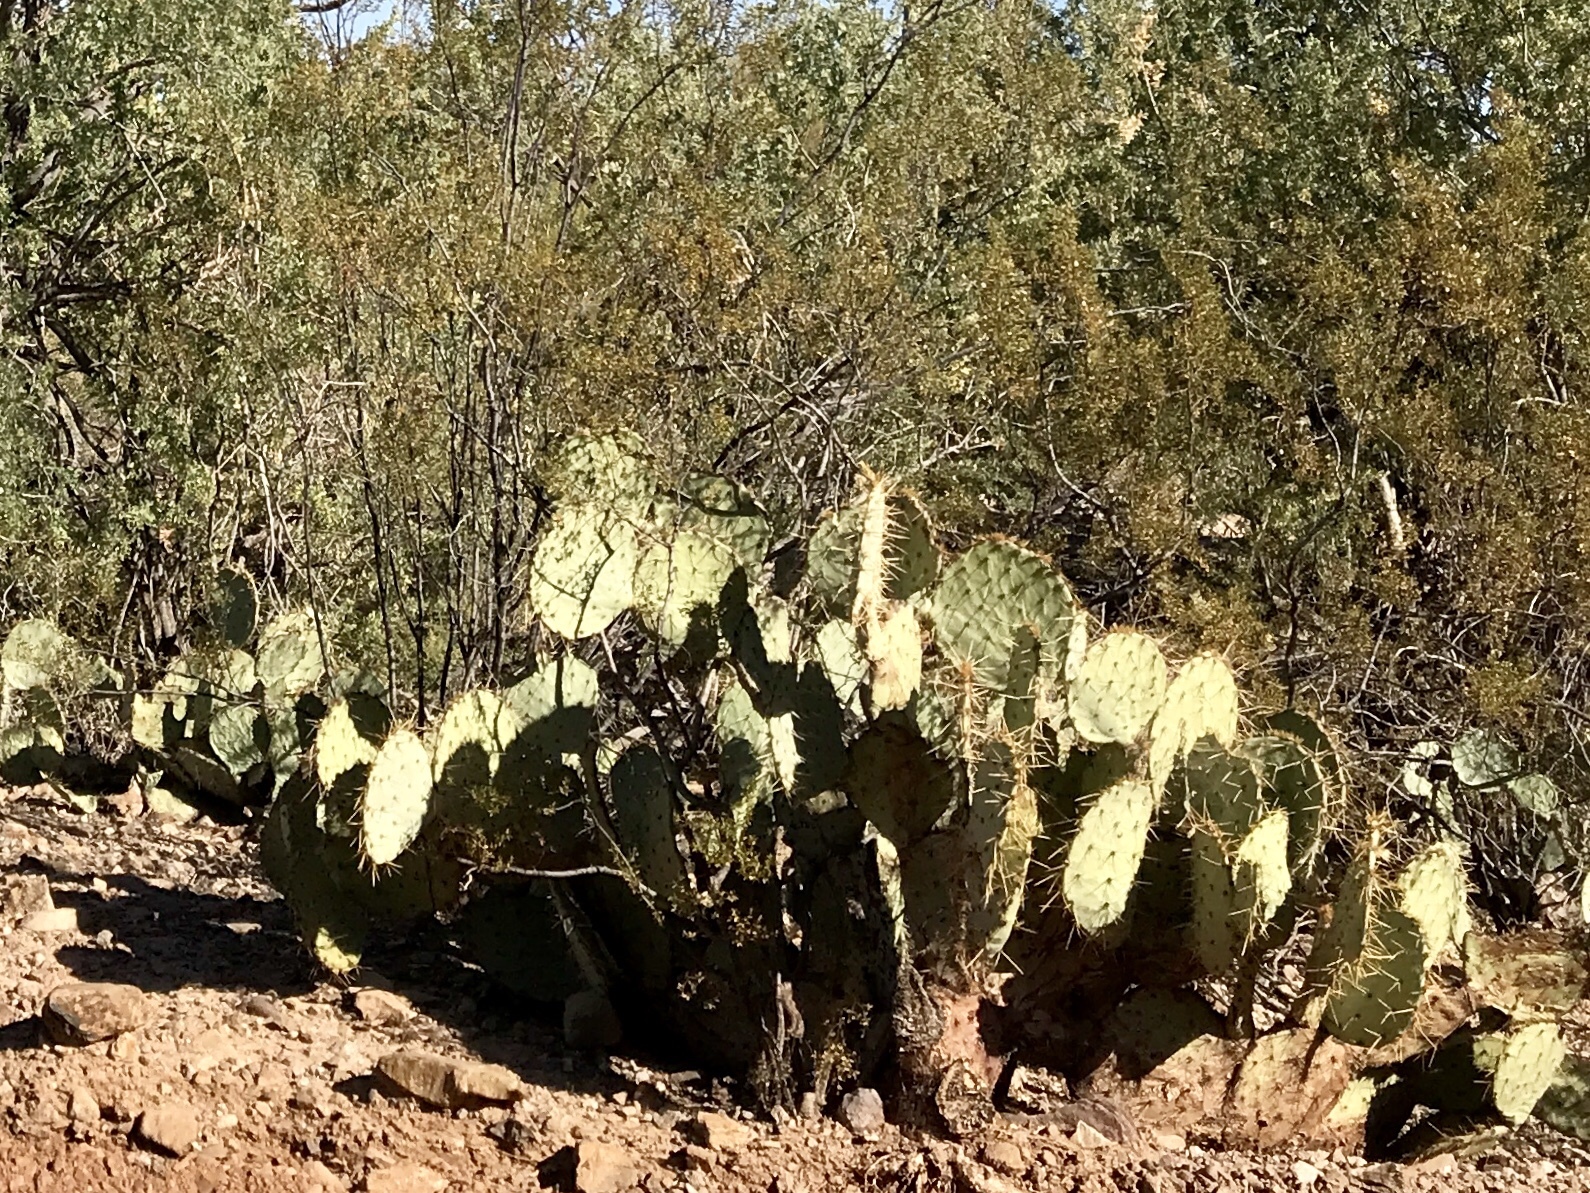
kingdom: Plantae
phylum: Tracheophyta
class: Magnoliopsida
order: Caryophyllales
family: Cactaceae
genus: Opuntia
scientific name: Opuntia phaeacantha
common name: New mexico prickly-pear
